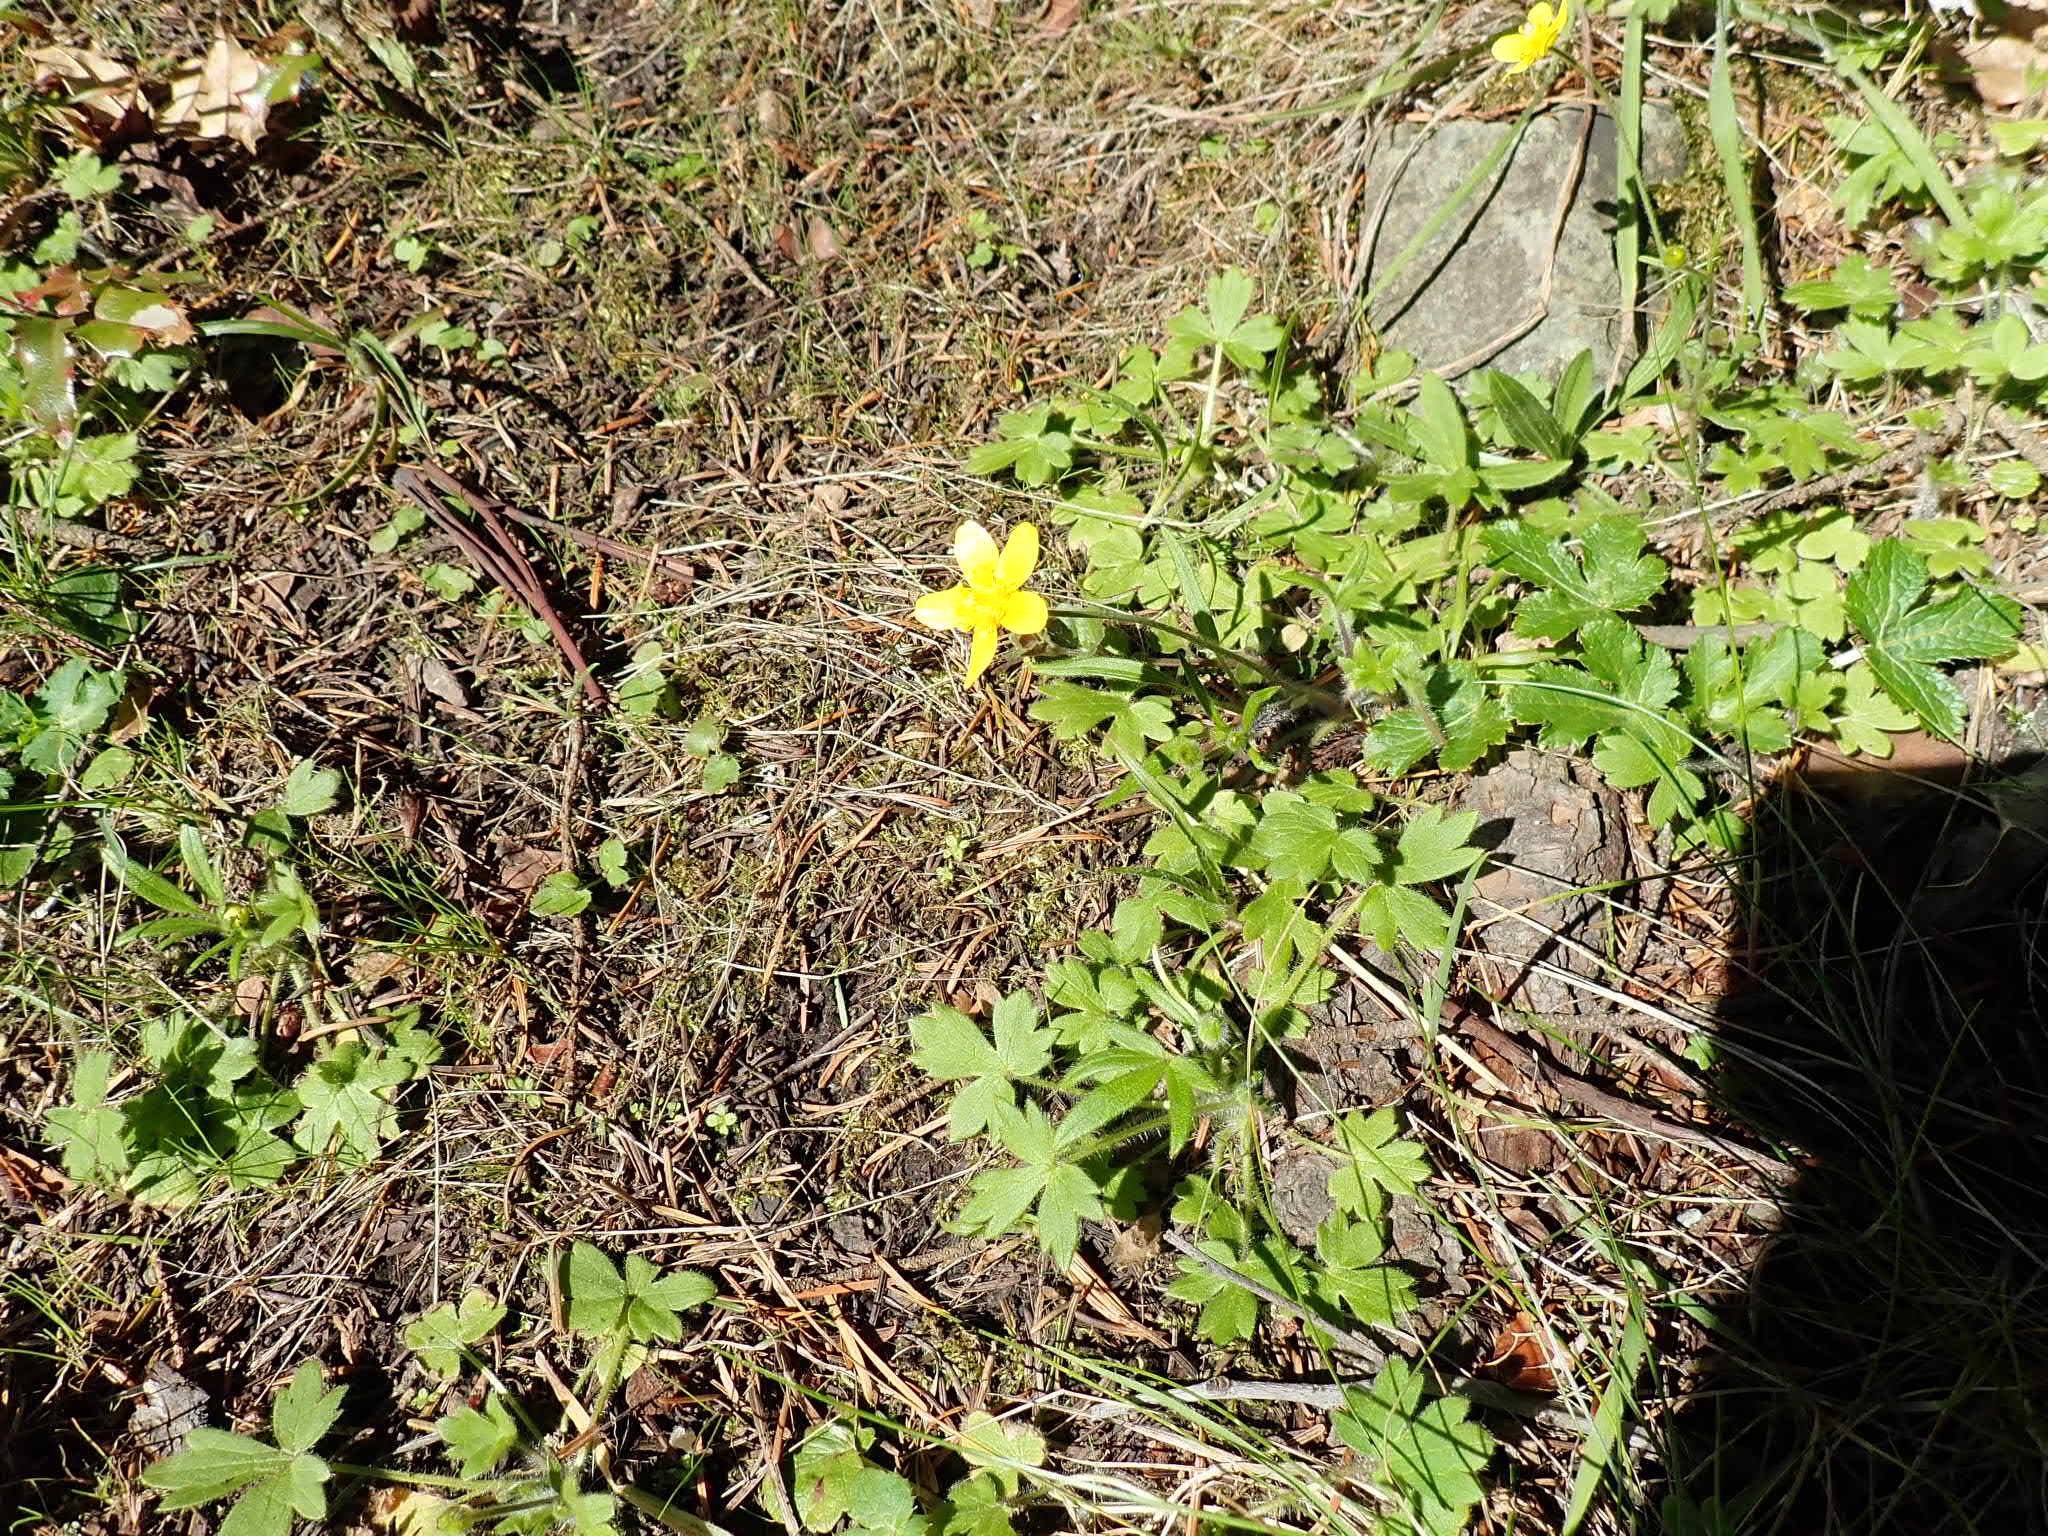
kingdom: Plantae
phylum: Tracheophyta
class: Magnoliopsida
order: Ranunculales
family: Ranunculaceae
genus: Ranunculus
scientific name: Ranunculus occidentalis
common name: Western buttercup
